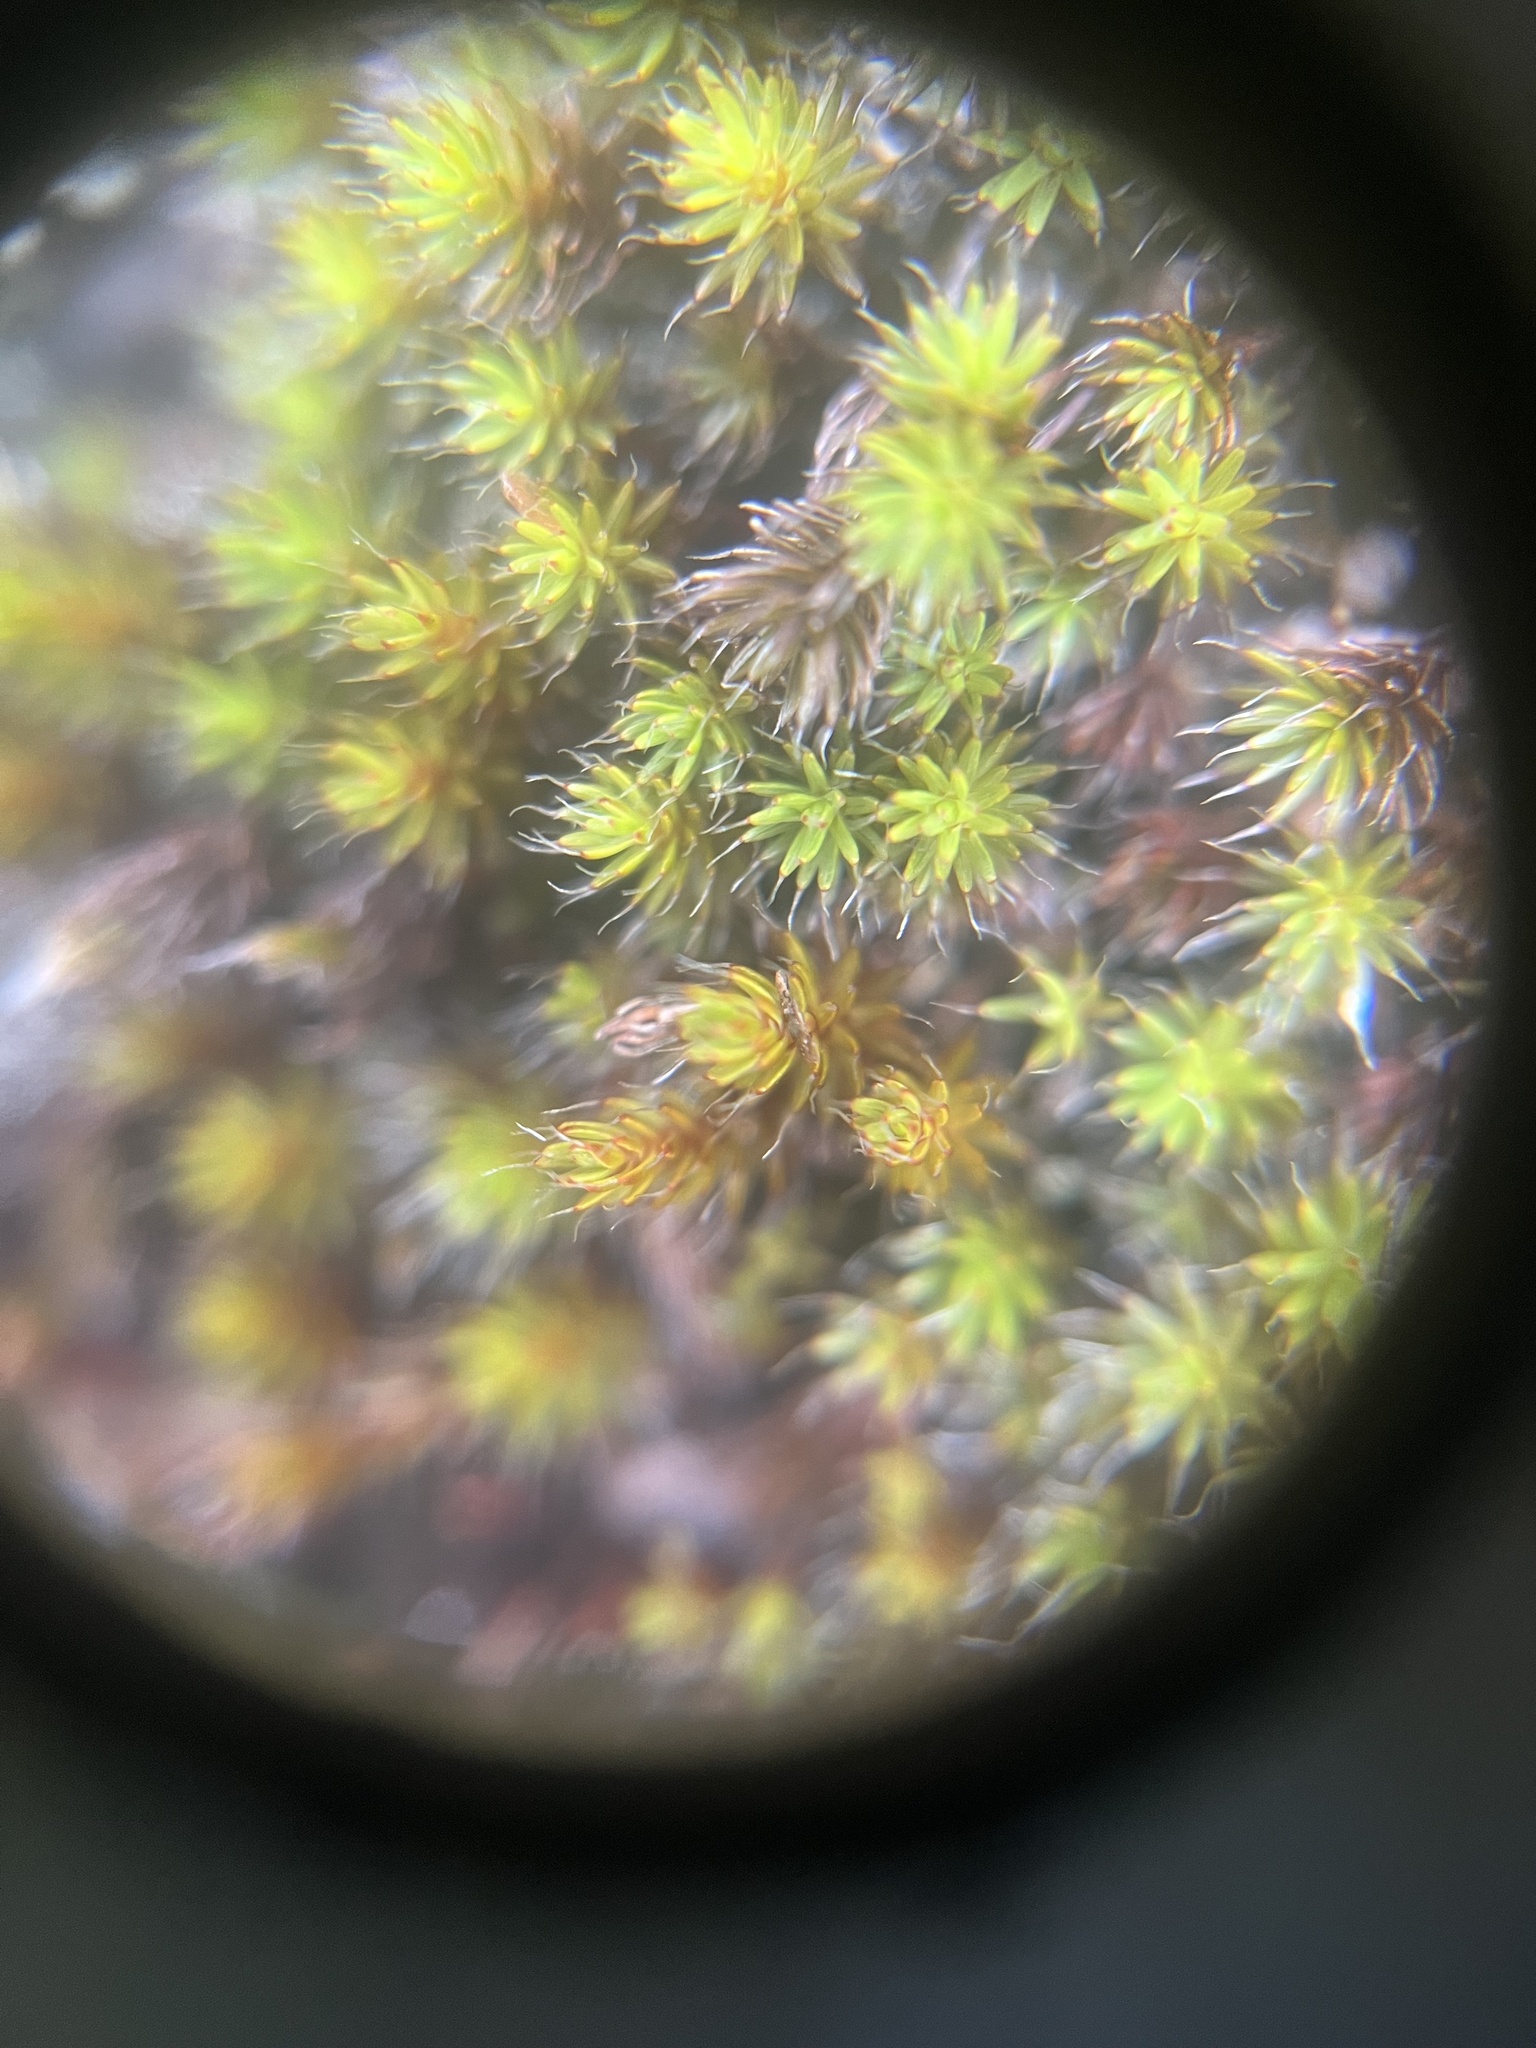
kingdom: Plantae
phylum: Bryophyta
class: Polytrichopsida
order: Polytrichales
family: Polytrichaceae
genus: Polytrichum
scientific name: Polytrichum piliferum
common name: Bristly haircap
